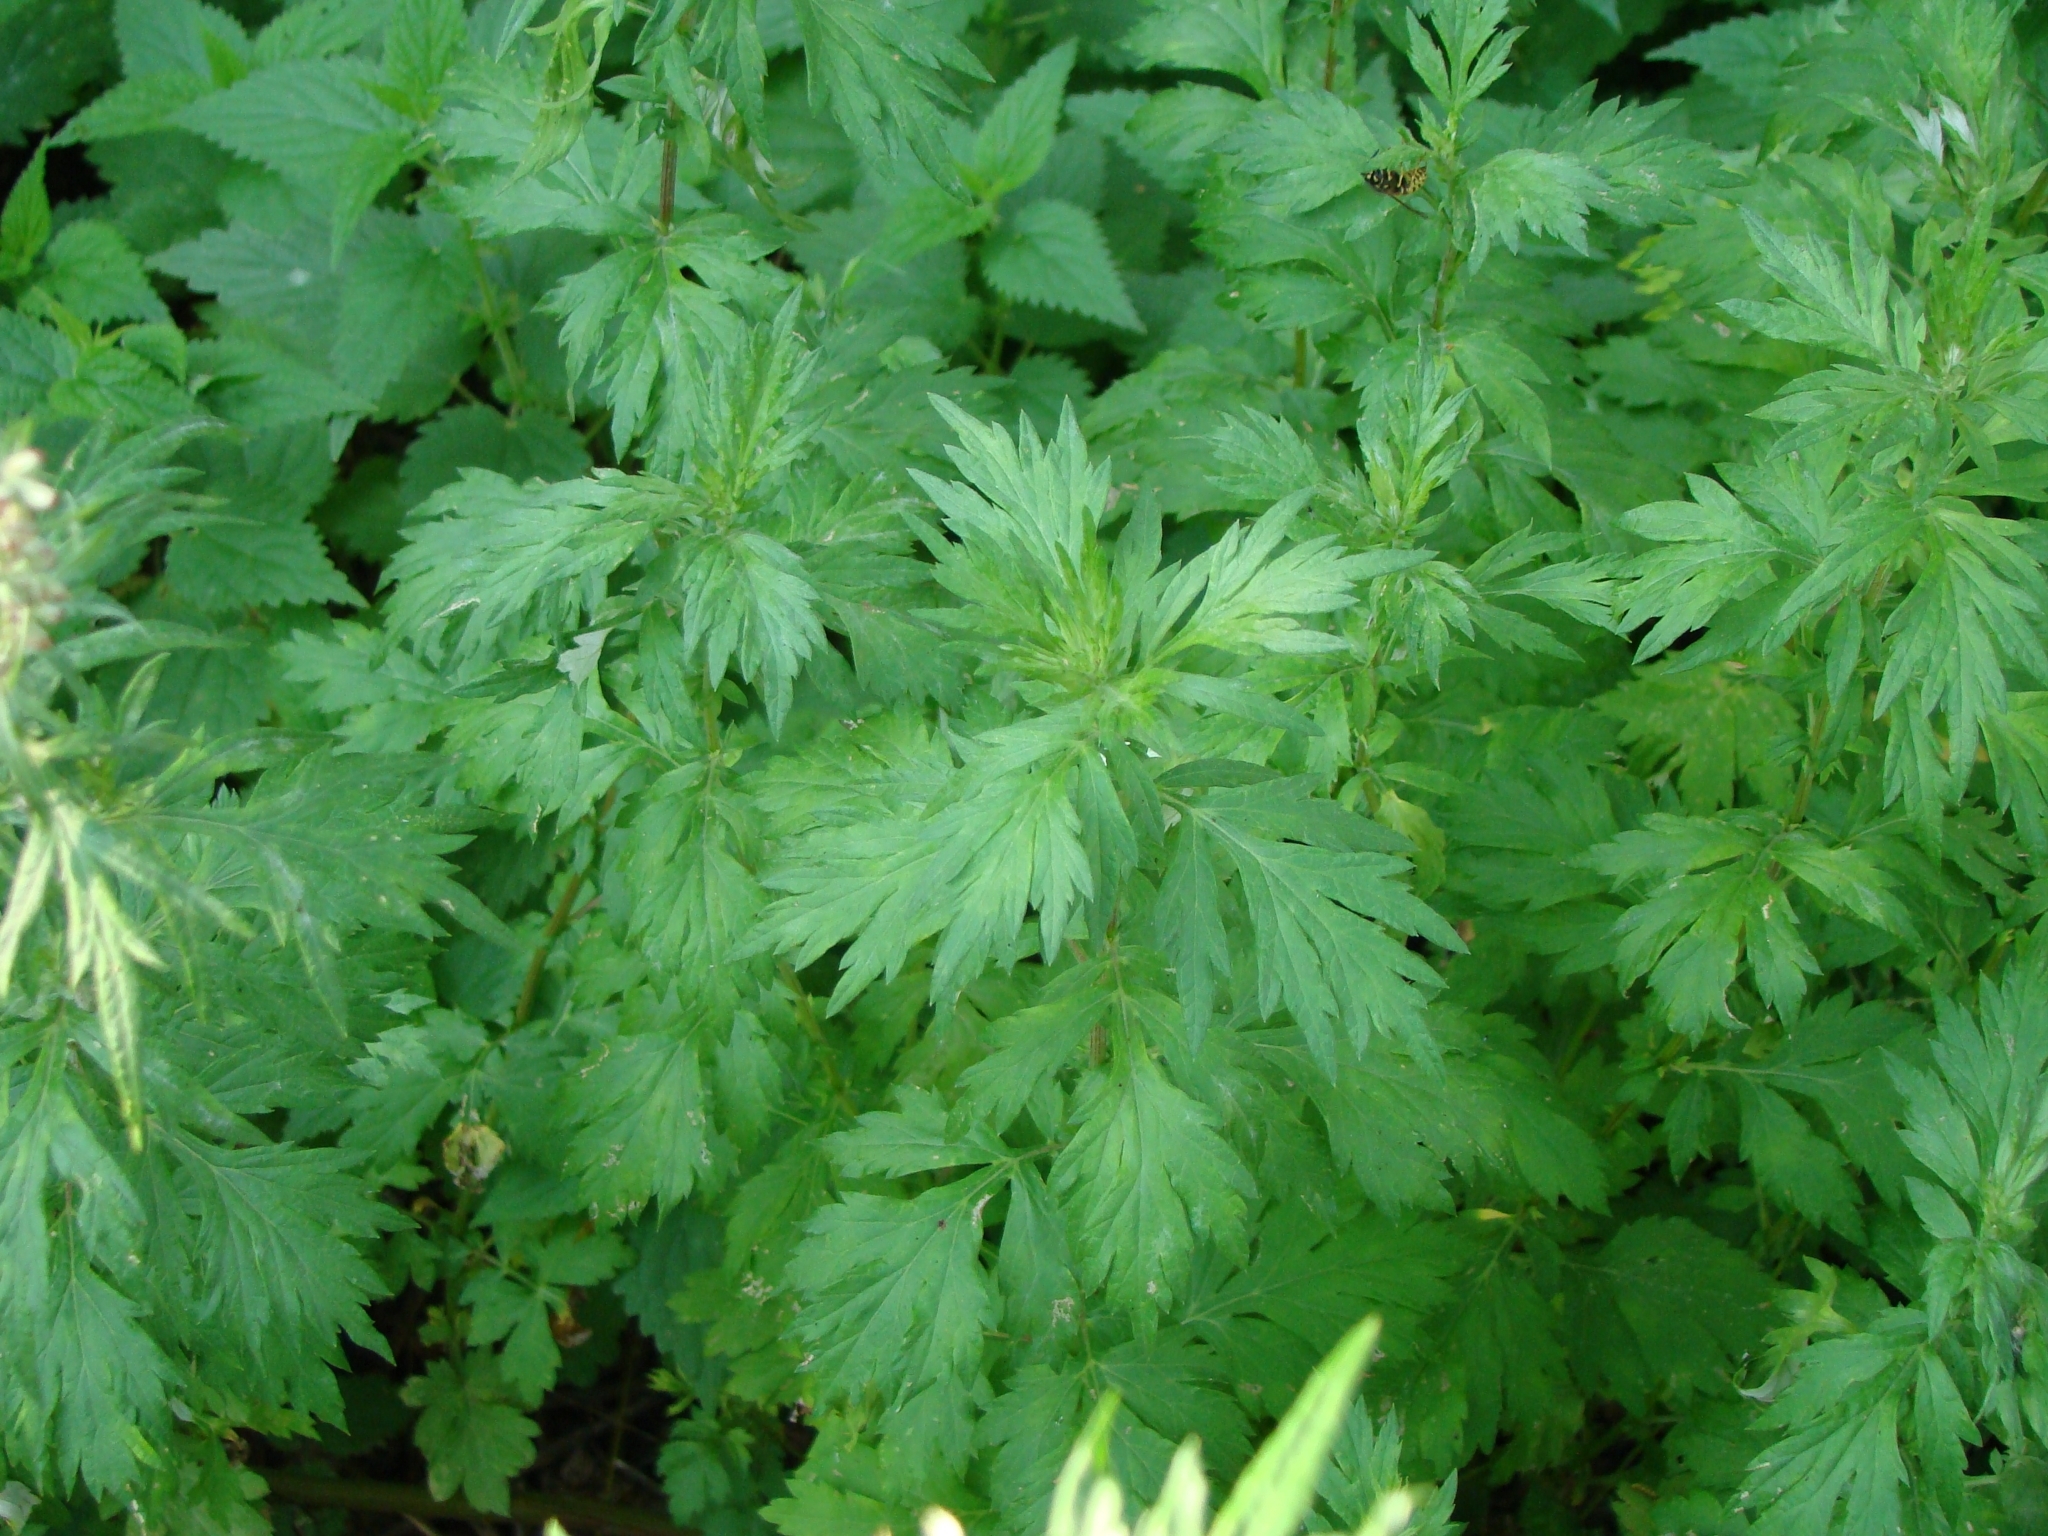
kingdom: Plantae
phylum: Tracheophyta
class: Magnoliopsida
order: Asterales
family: Asteraceae
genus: Artemisia
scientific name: Artemisia vulgaris
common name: Mugwort
